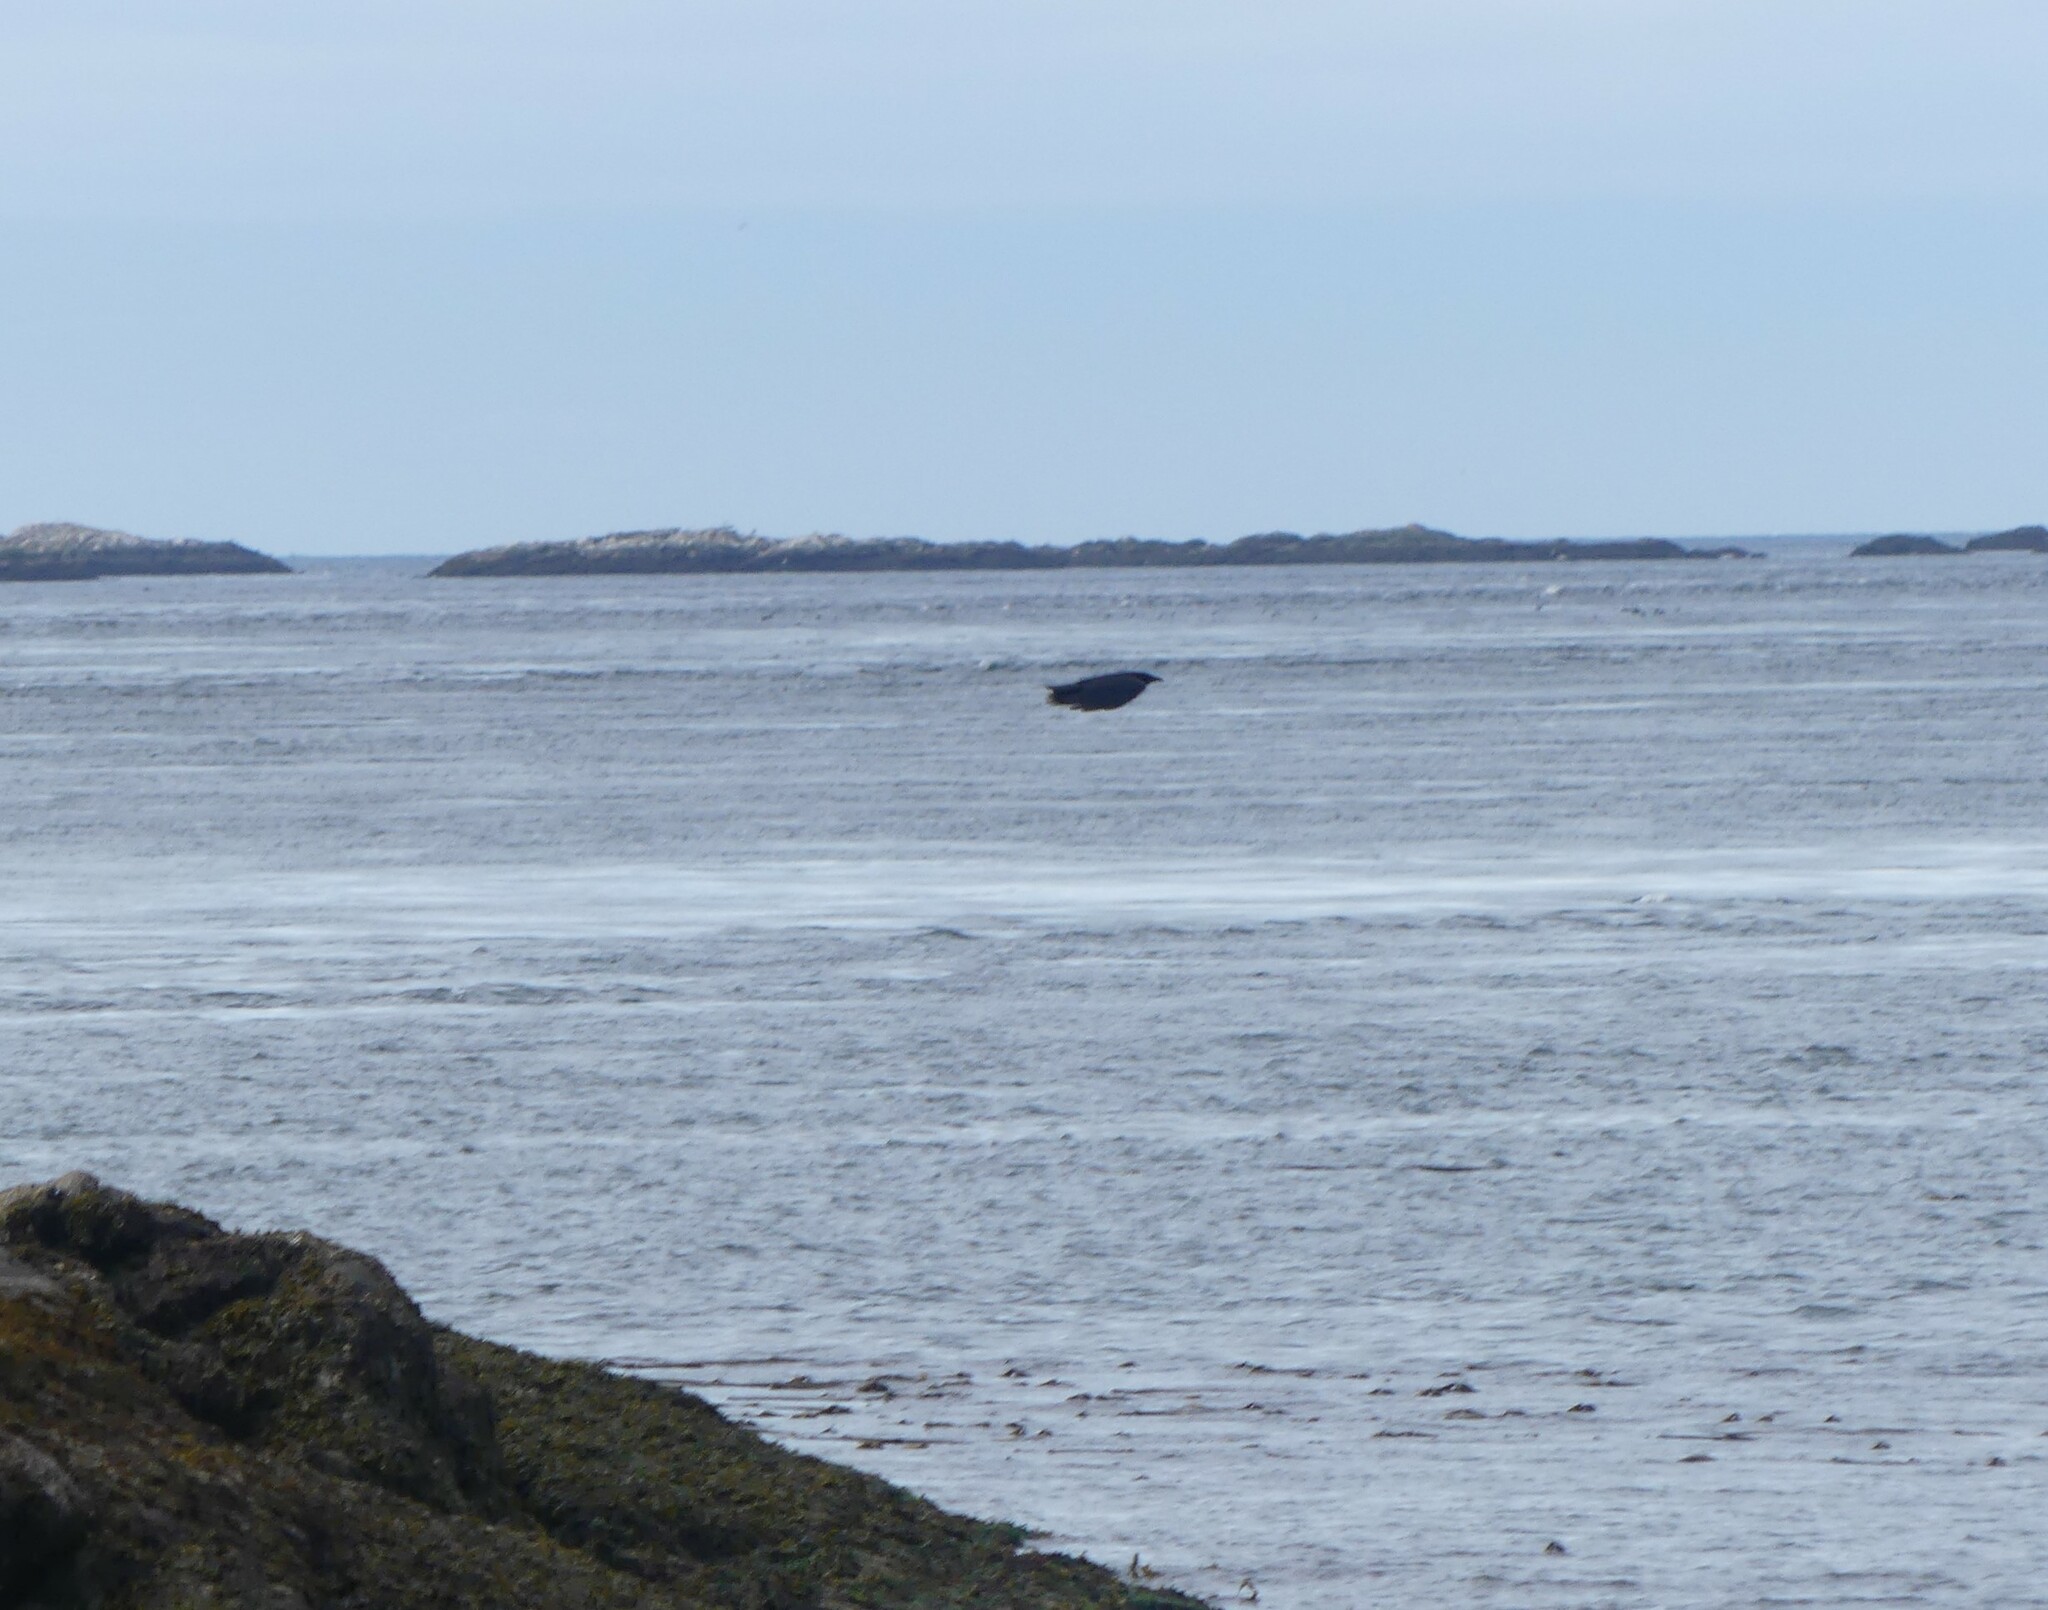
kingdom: Animalia
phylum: Chordata
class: Aves
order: Passeriformes
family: Corvidae
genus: Corvus
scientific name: Corvus brachyrhynchos
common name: American crow
